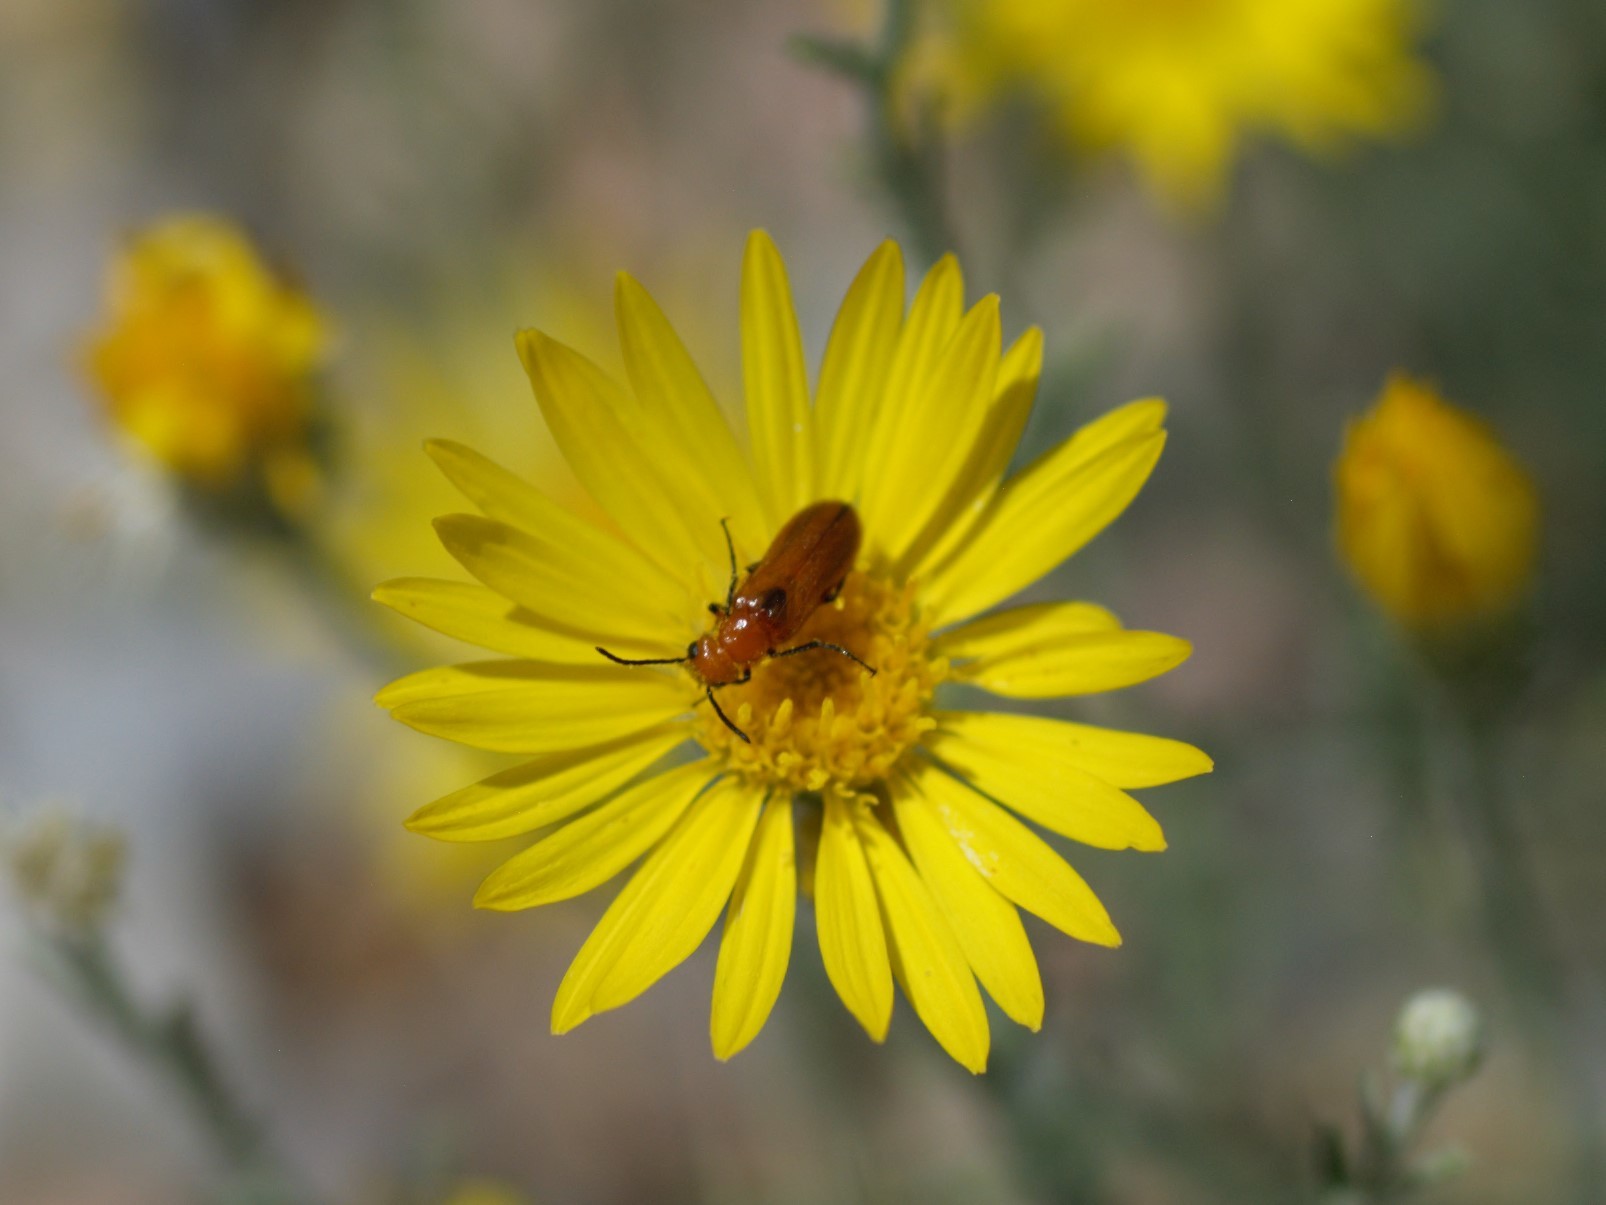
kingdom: Animalia
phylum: Arthropoda
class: Insecta
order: Coleoptera
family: Meloidae
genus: Nemognatha
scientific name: Nemognatha nigripennis
